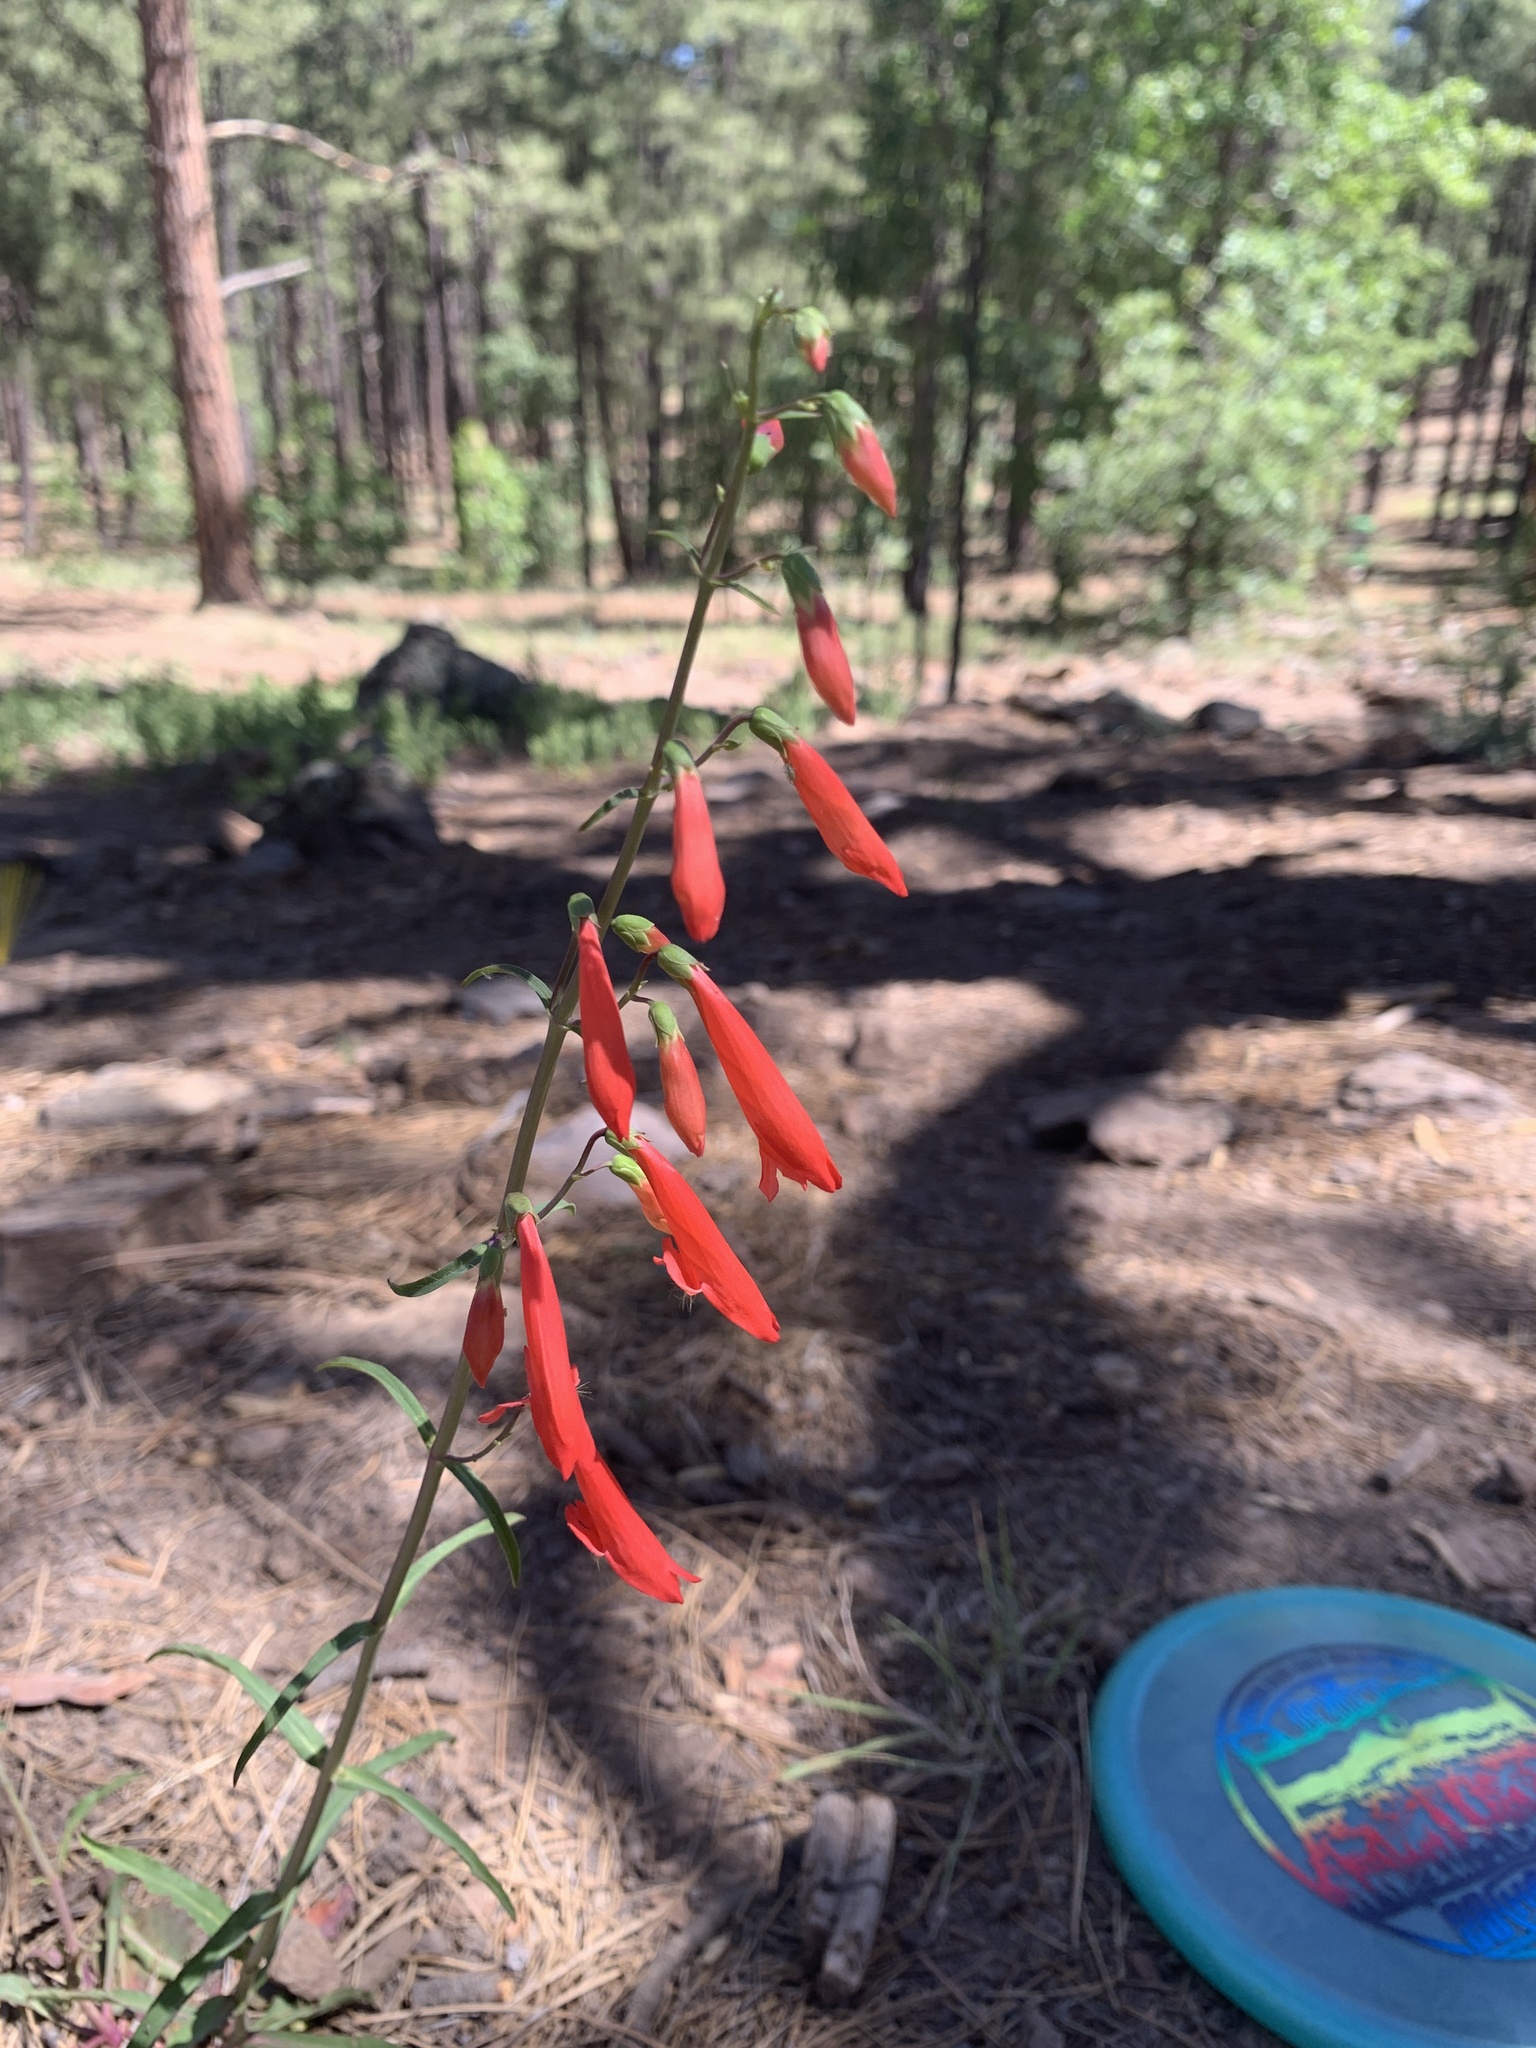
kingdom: Plantae
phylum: Tracheophyta
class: Magnoliopsida
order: Lamiales
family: Plantaginaceae
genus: Penstemon
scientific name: Penstemon barbatus
